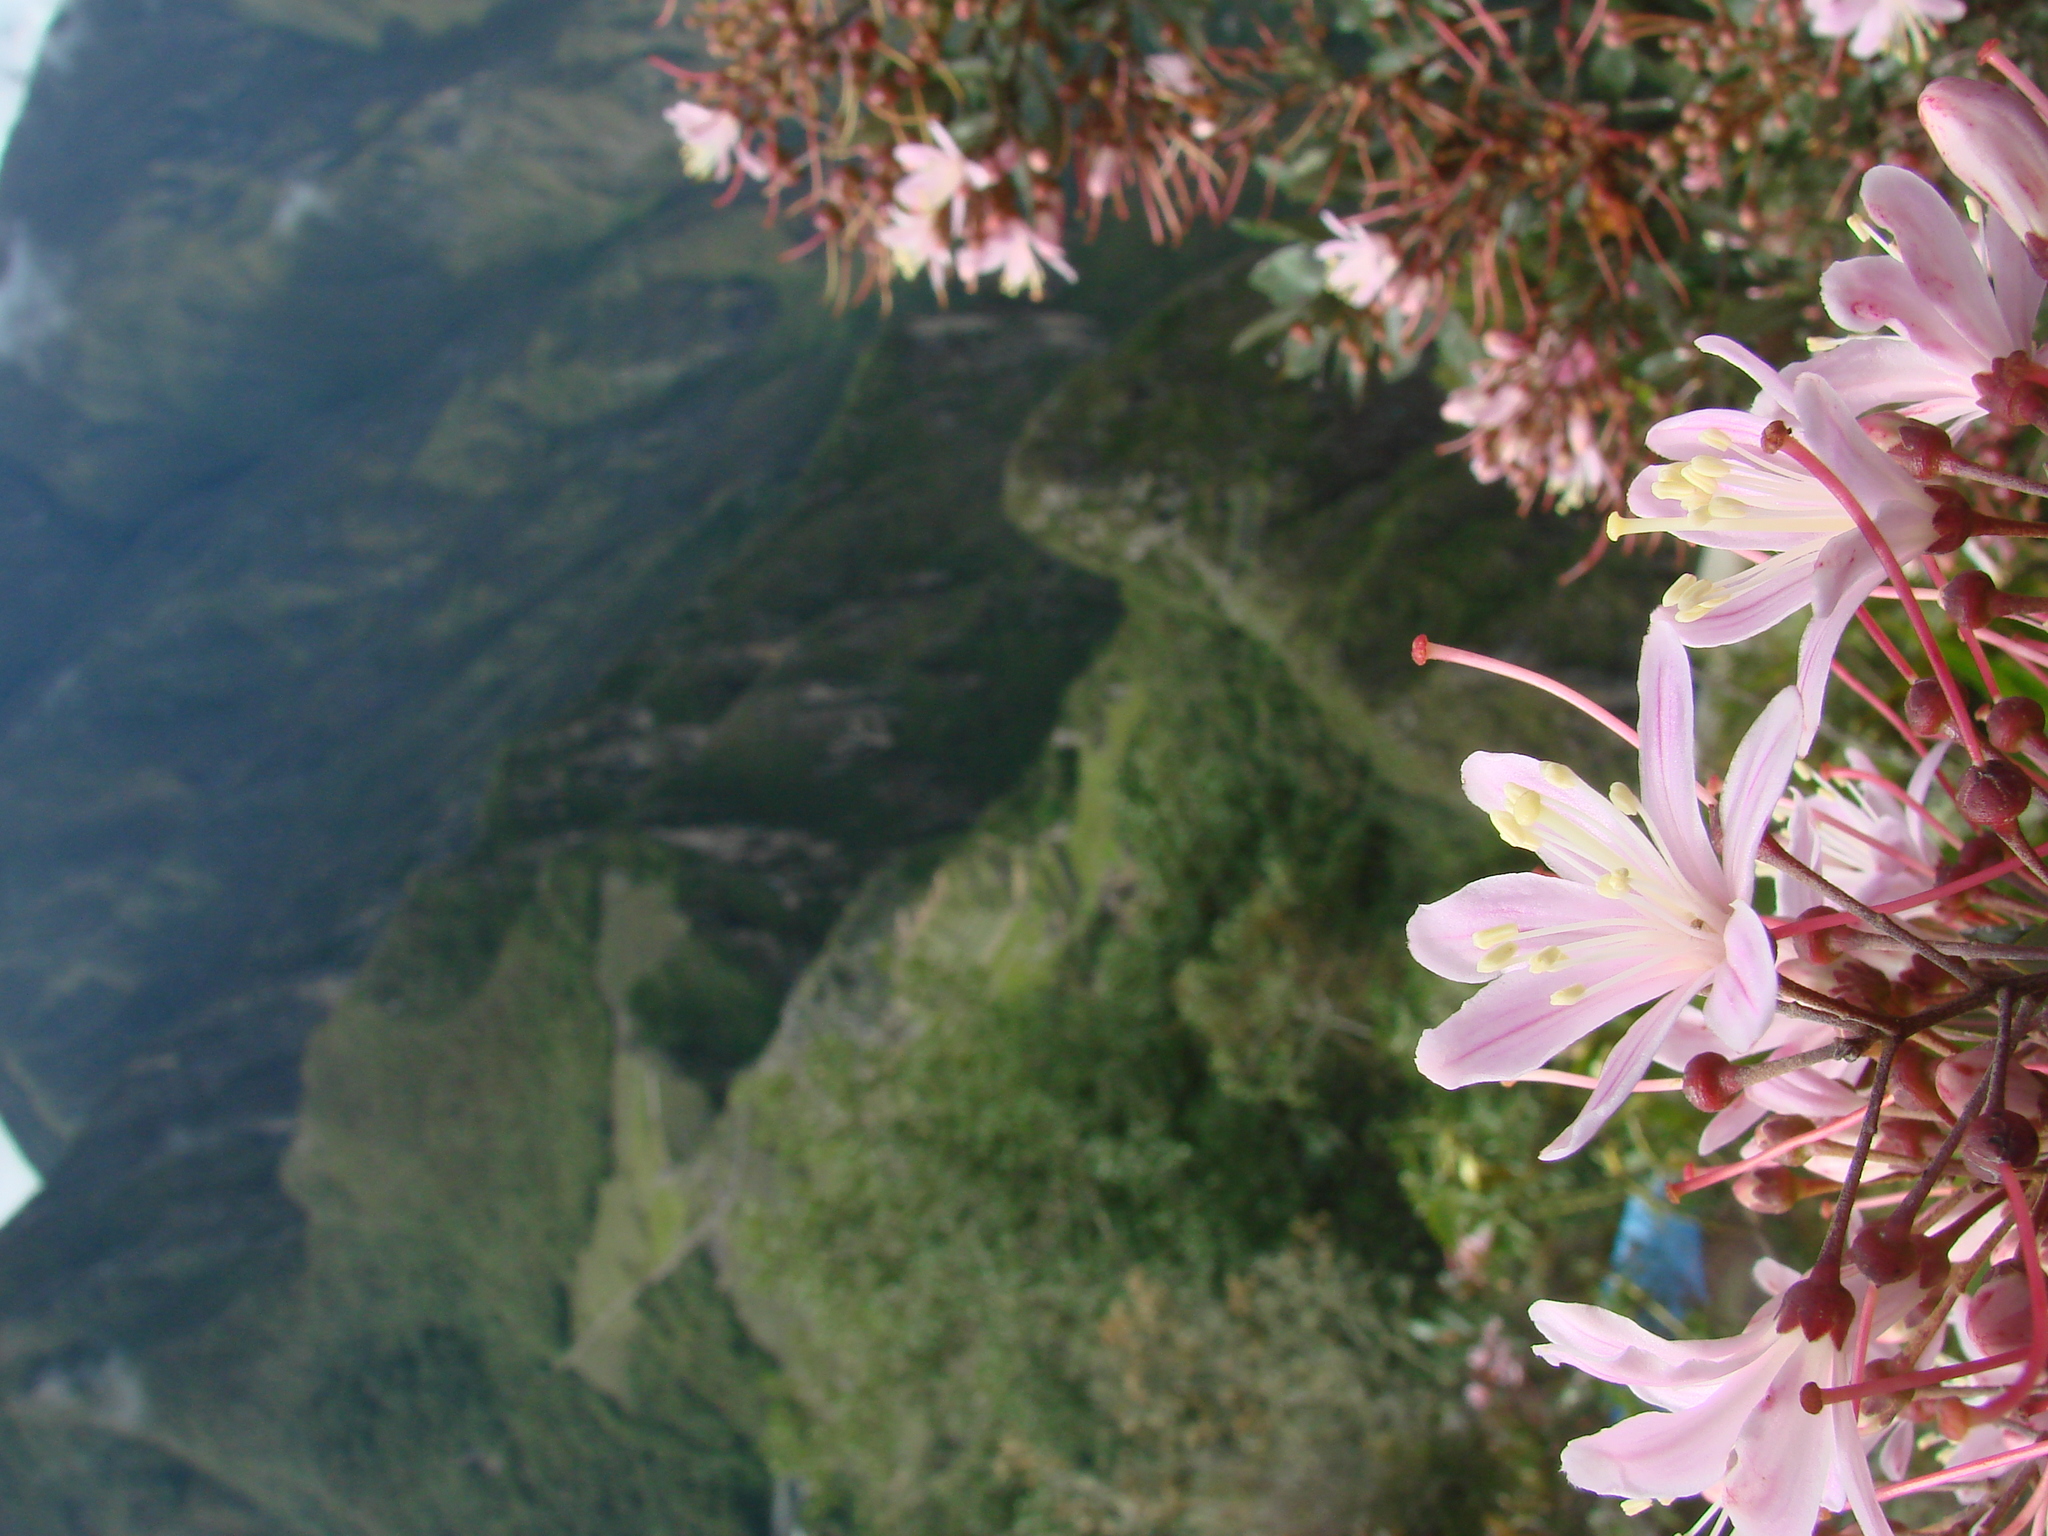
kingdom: Plantae
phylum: Tracheophyta
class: Magnoliopsida
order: Ericales
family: Ericaceae
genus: Bejaria
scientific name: Bejaria aestuans
